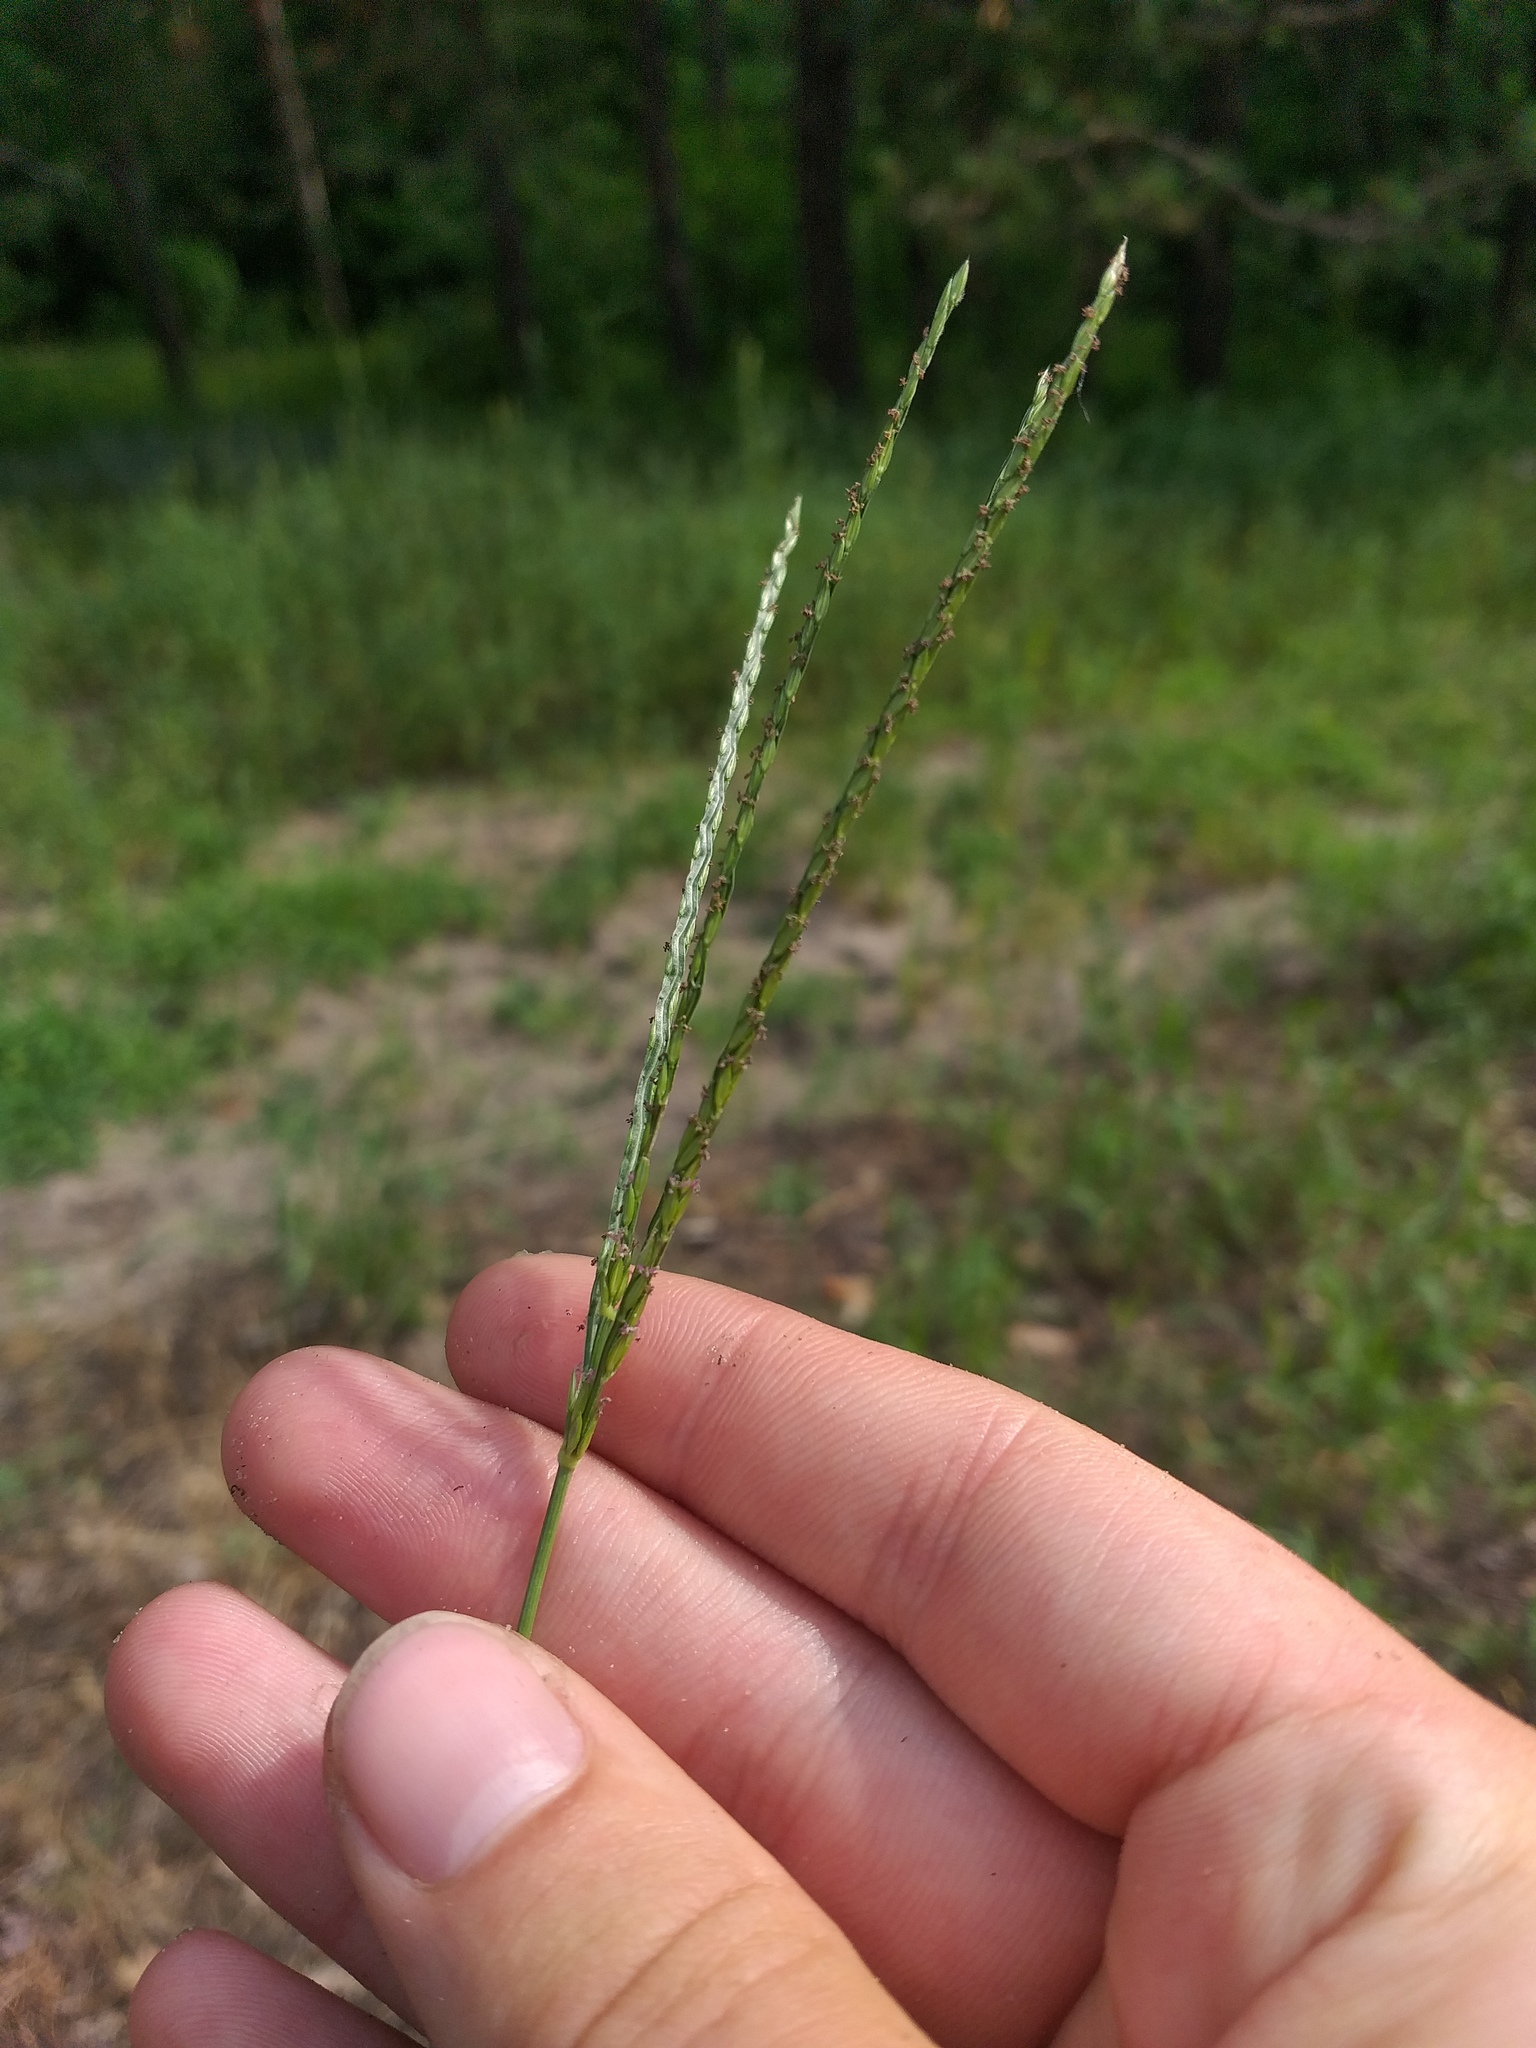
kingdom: Plantae
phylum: Tracheophyta
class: Liliopsida
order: Poales
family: Poaceae
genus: Digitaria
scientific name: Digitaria sanguinalis
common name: Hairy crabgrass
